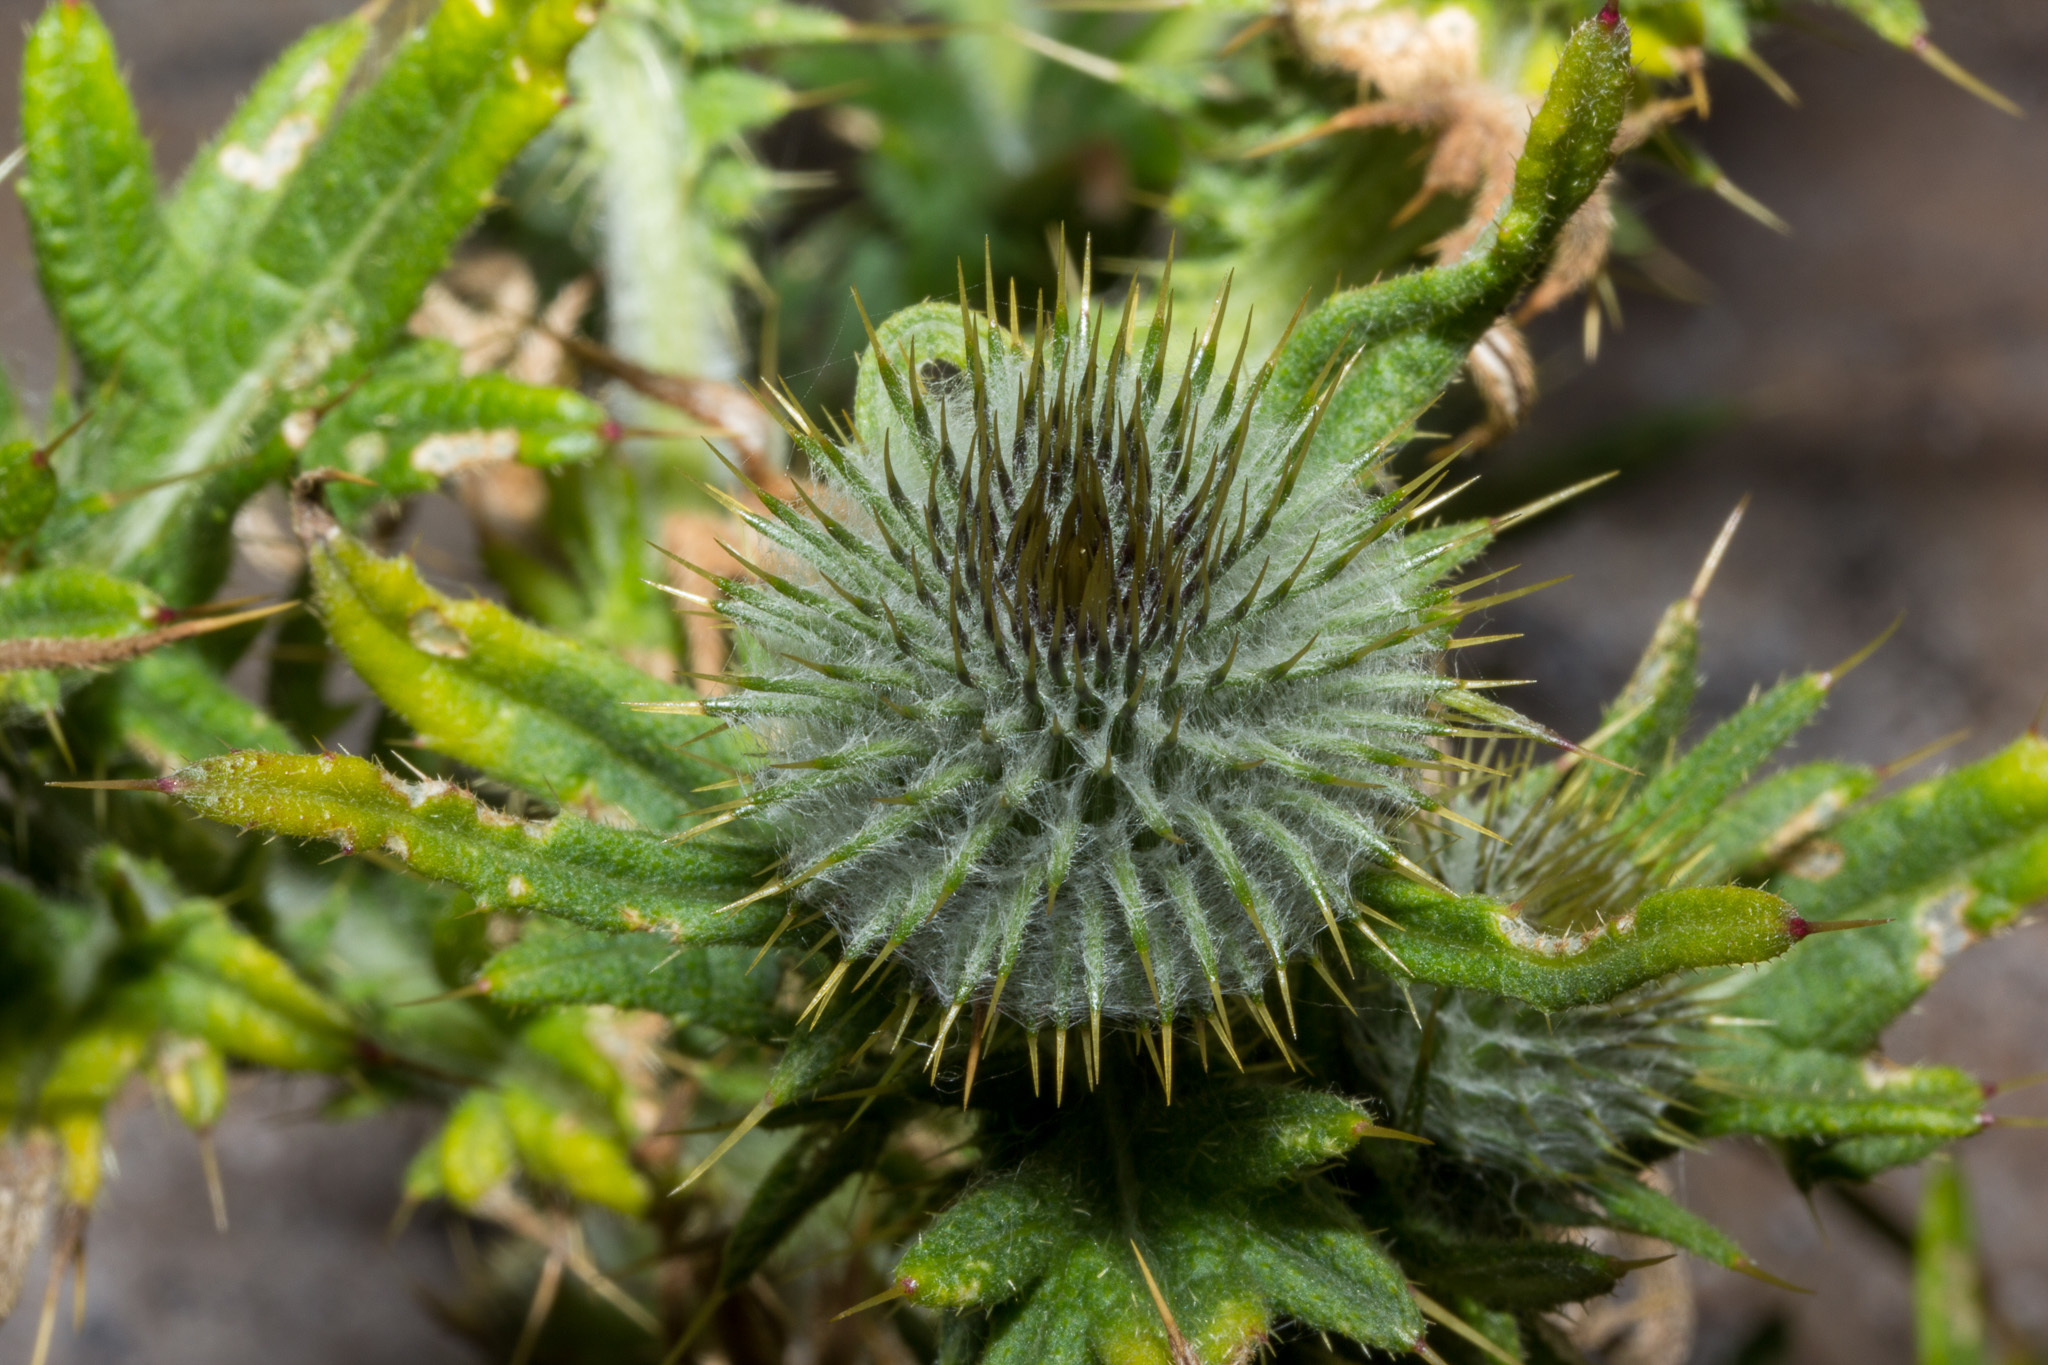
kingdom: Plantae
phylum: Tracheophyta
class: Magnoliopsida
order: Asterales
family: Asteraceae
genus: Cirsium
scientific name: Cirsium vulgare
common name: Bull thistle
